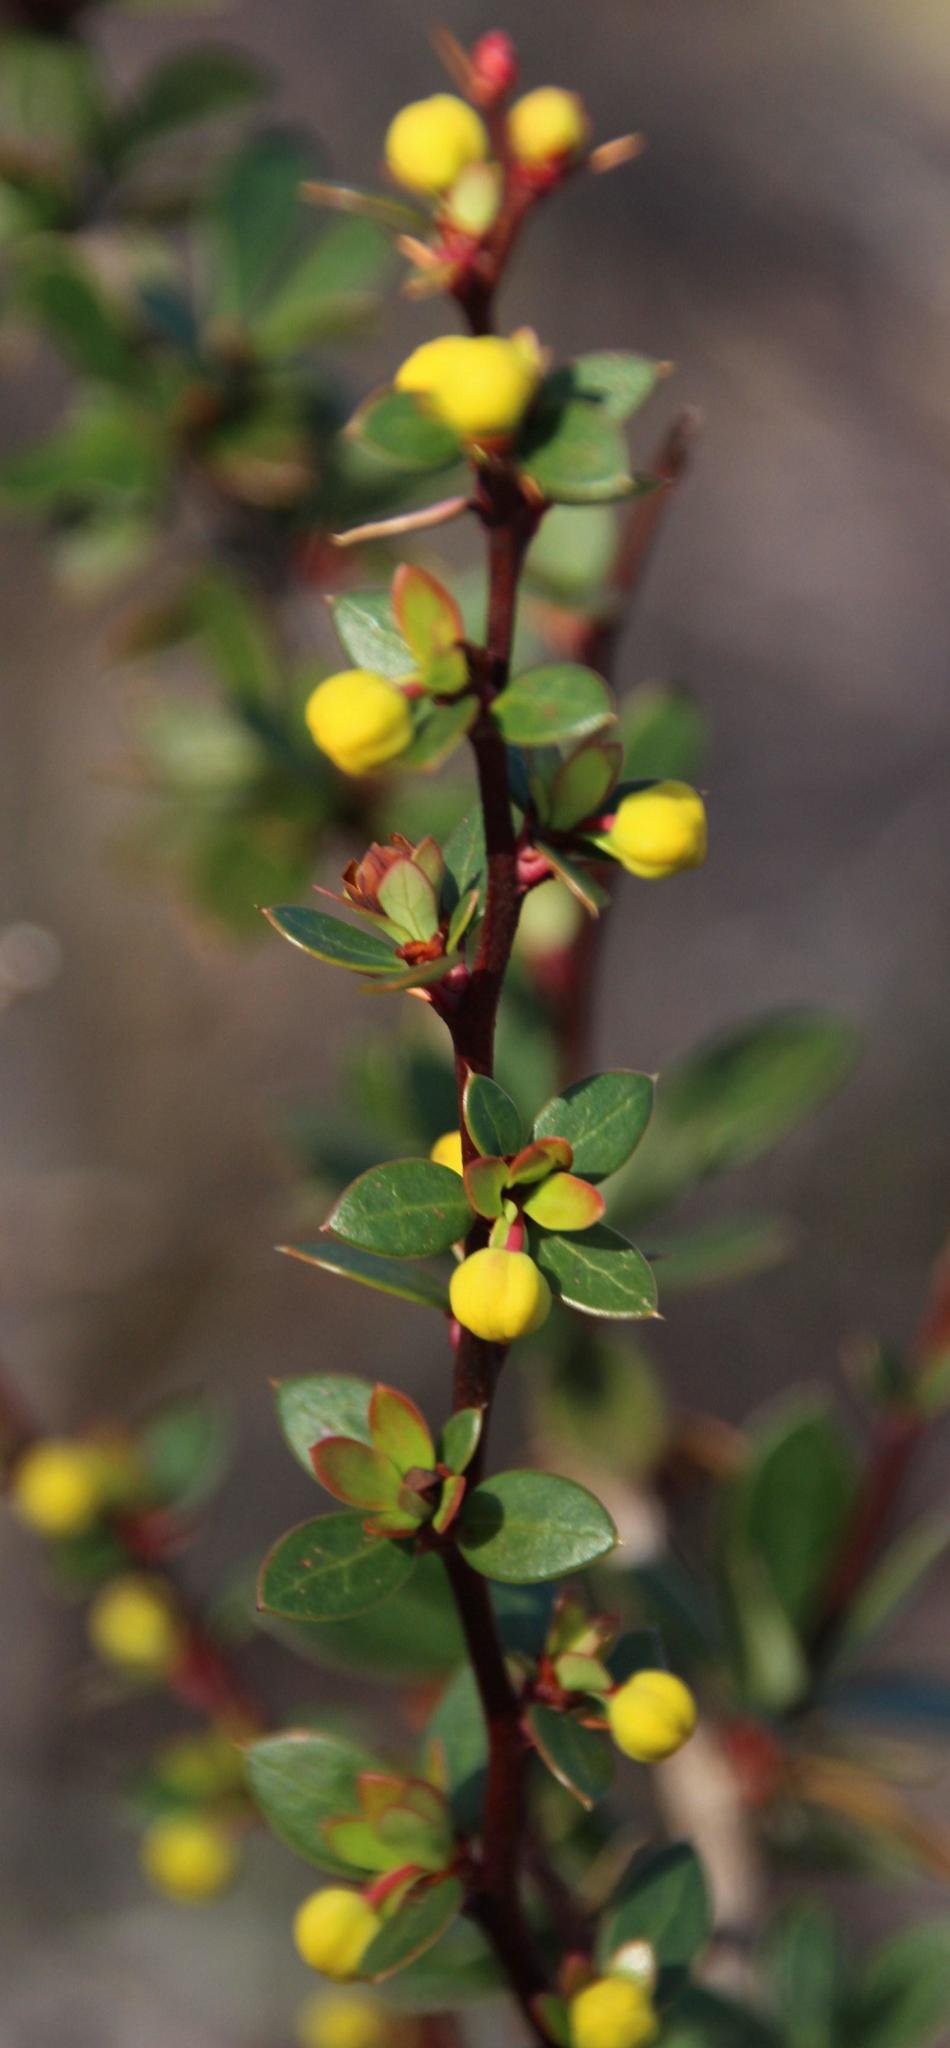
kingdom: Plantae
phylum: Tracheophyta
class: Magnoliopsida
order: Ranunculales
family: Berberidaceae
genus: Berberis
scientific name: Berberis microphylla
